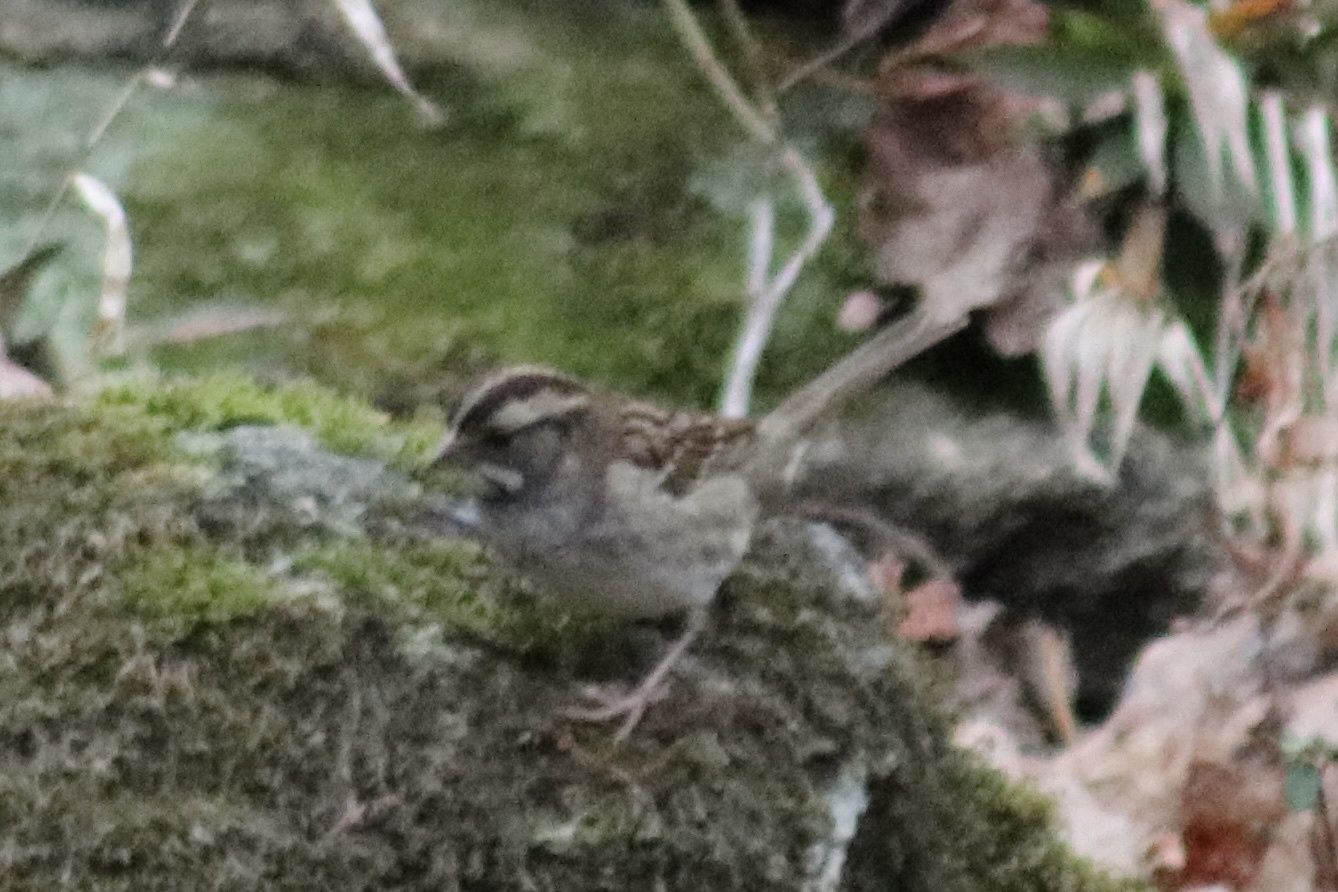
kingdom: Animalia
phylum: Chordata
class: Aves
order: Passeriformes
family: Passerellidae
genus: Zonotrichia
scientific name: Zonotrichia albicollis
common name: White-throated sparrow
